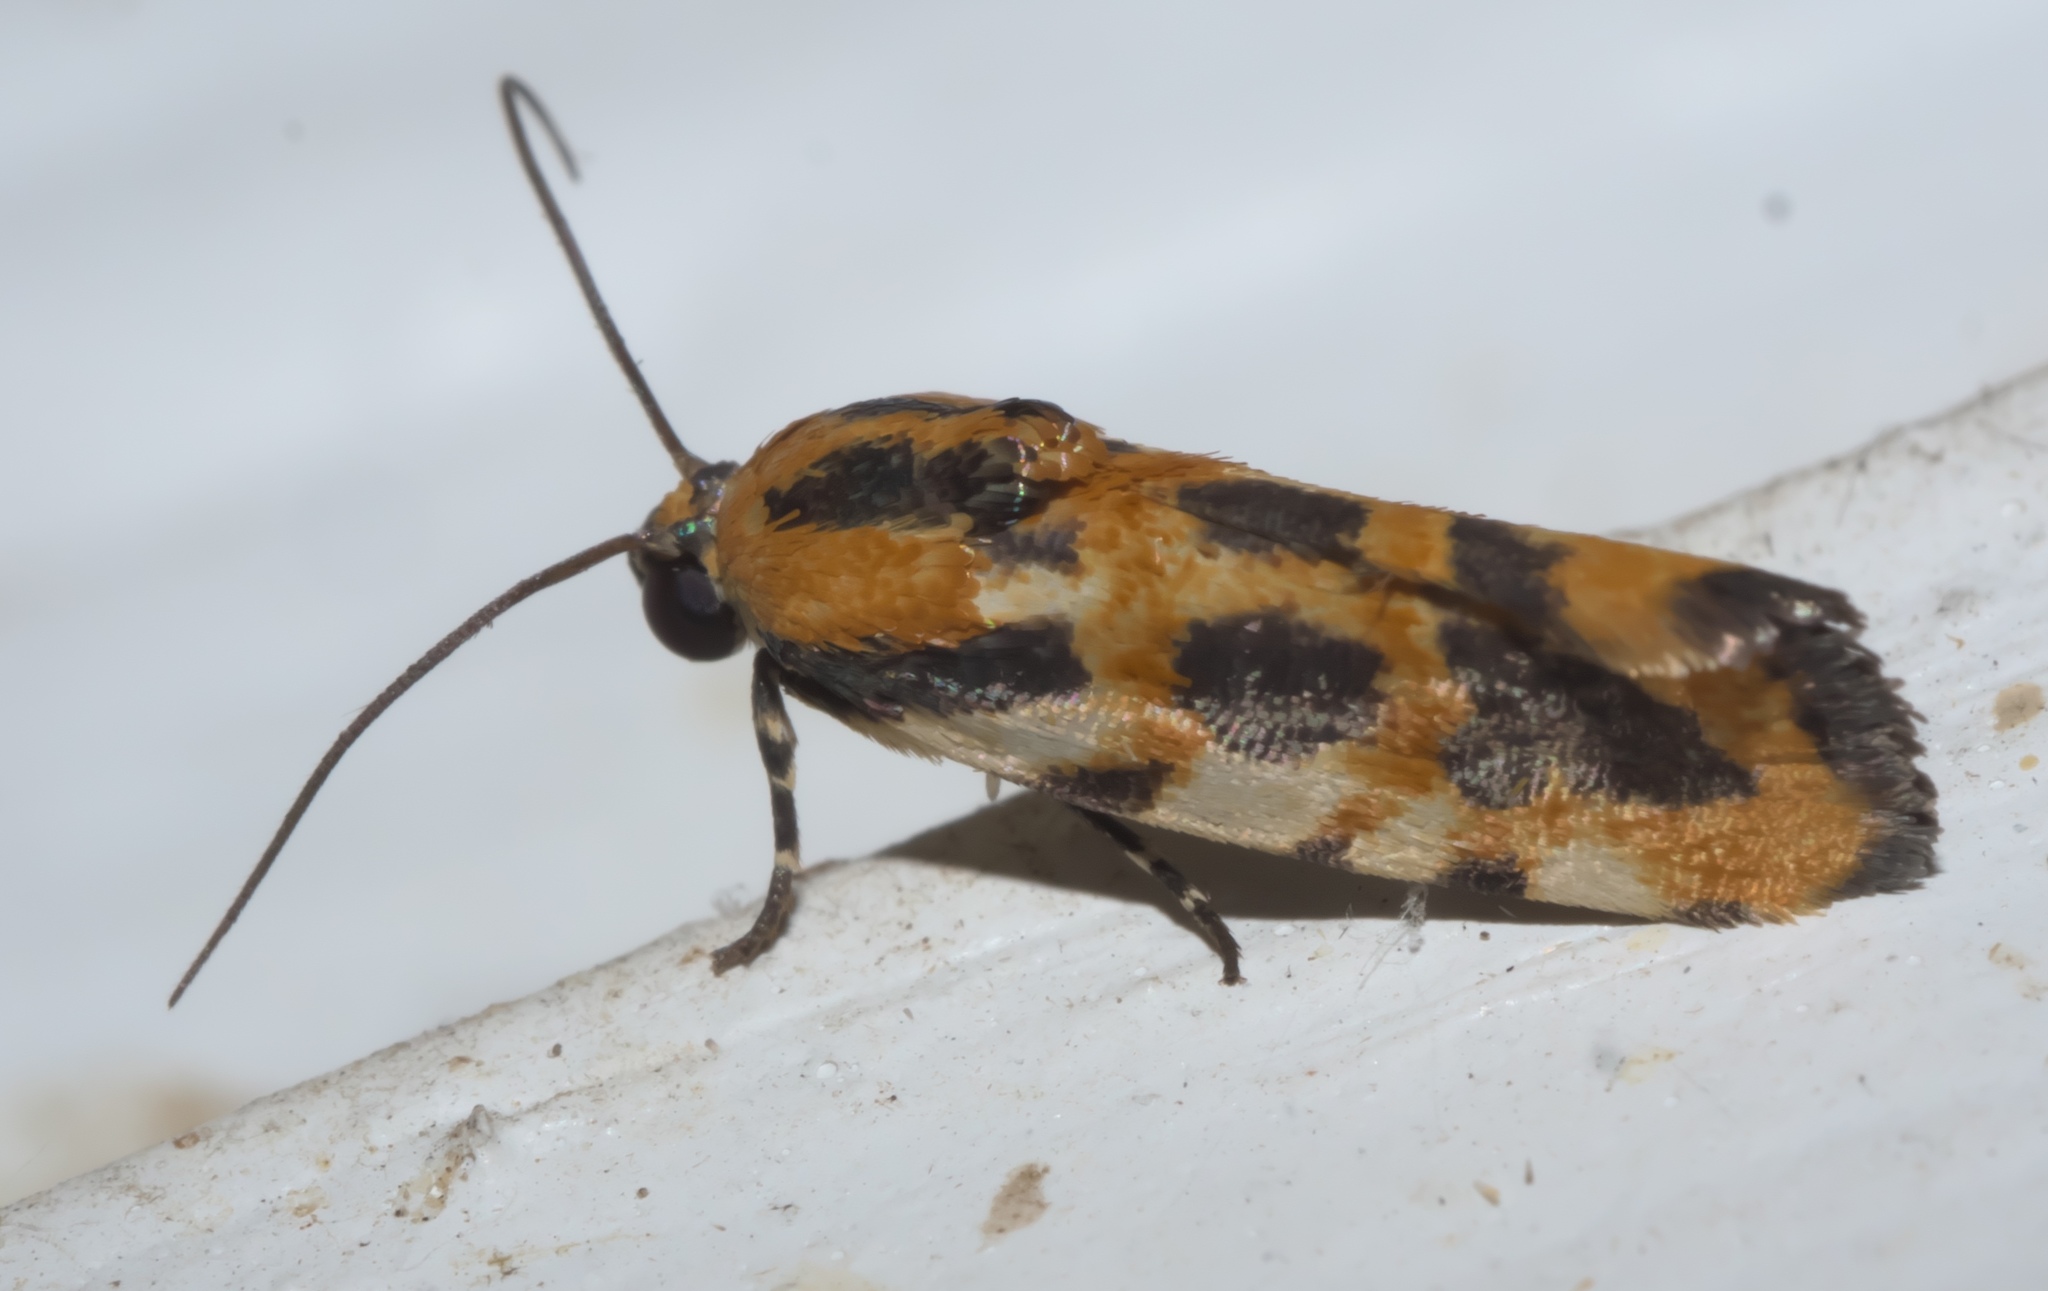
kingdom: Animalia
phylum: Arthropoda
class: Insecta
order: Lepidoptera
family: Noctuidae
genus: Acontia
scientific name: Acontia leo
